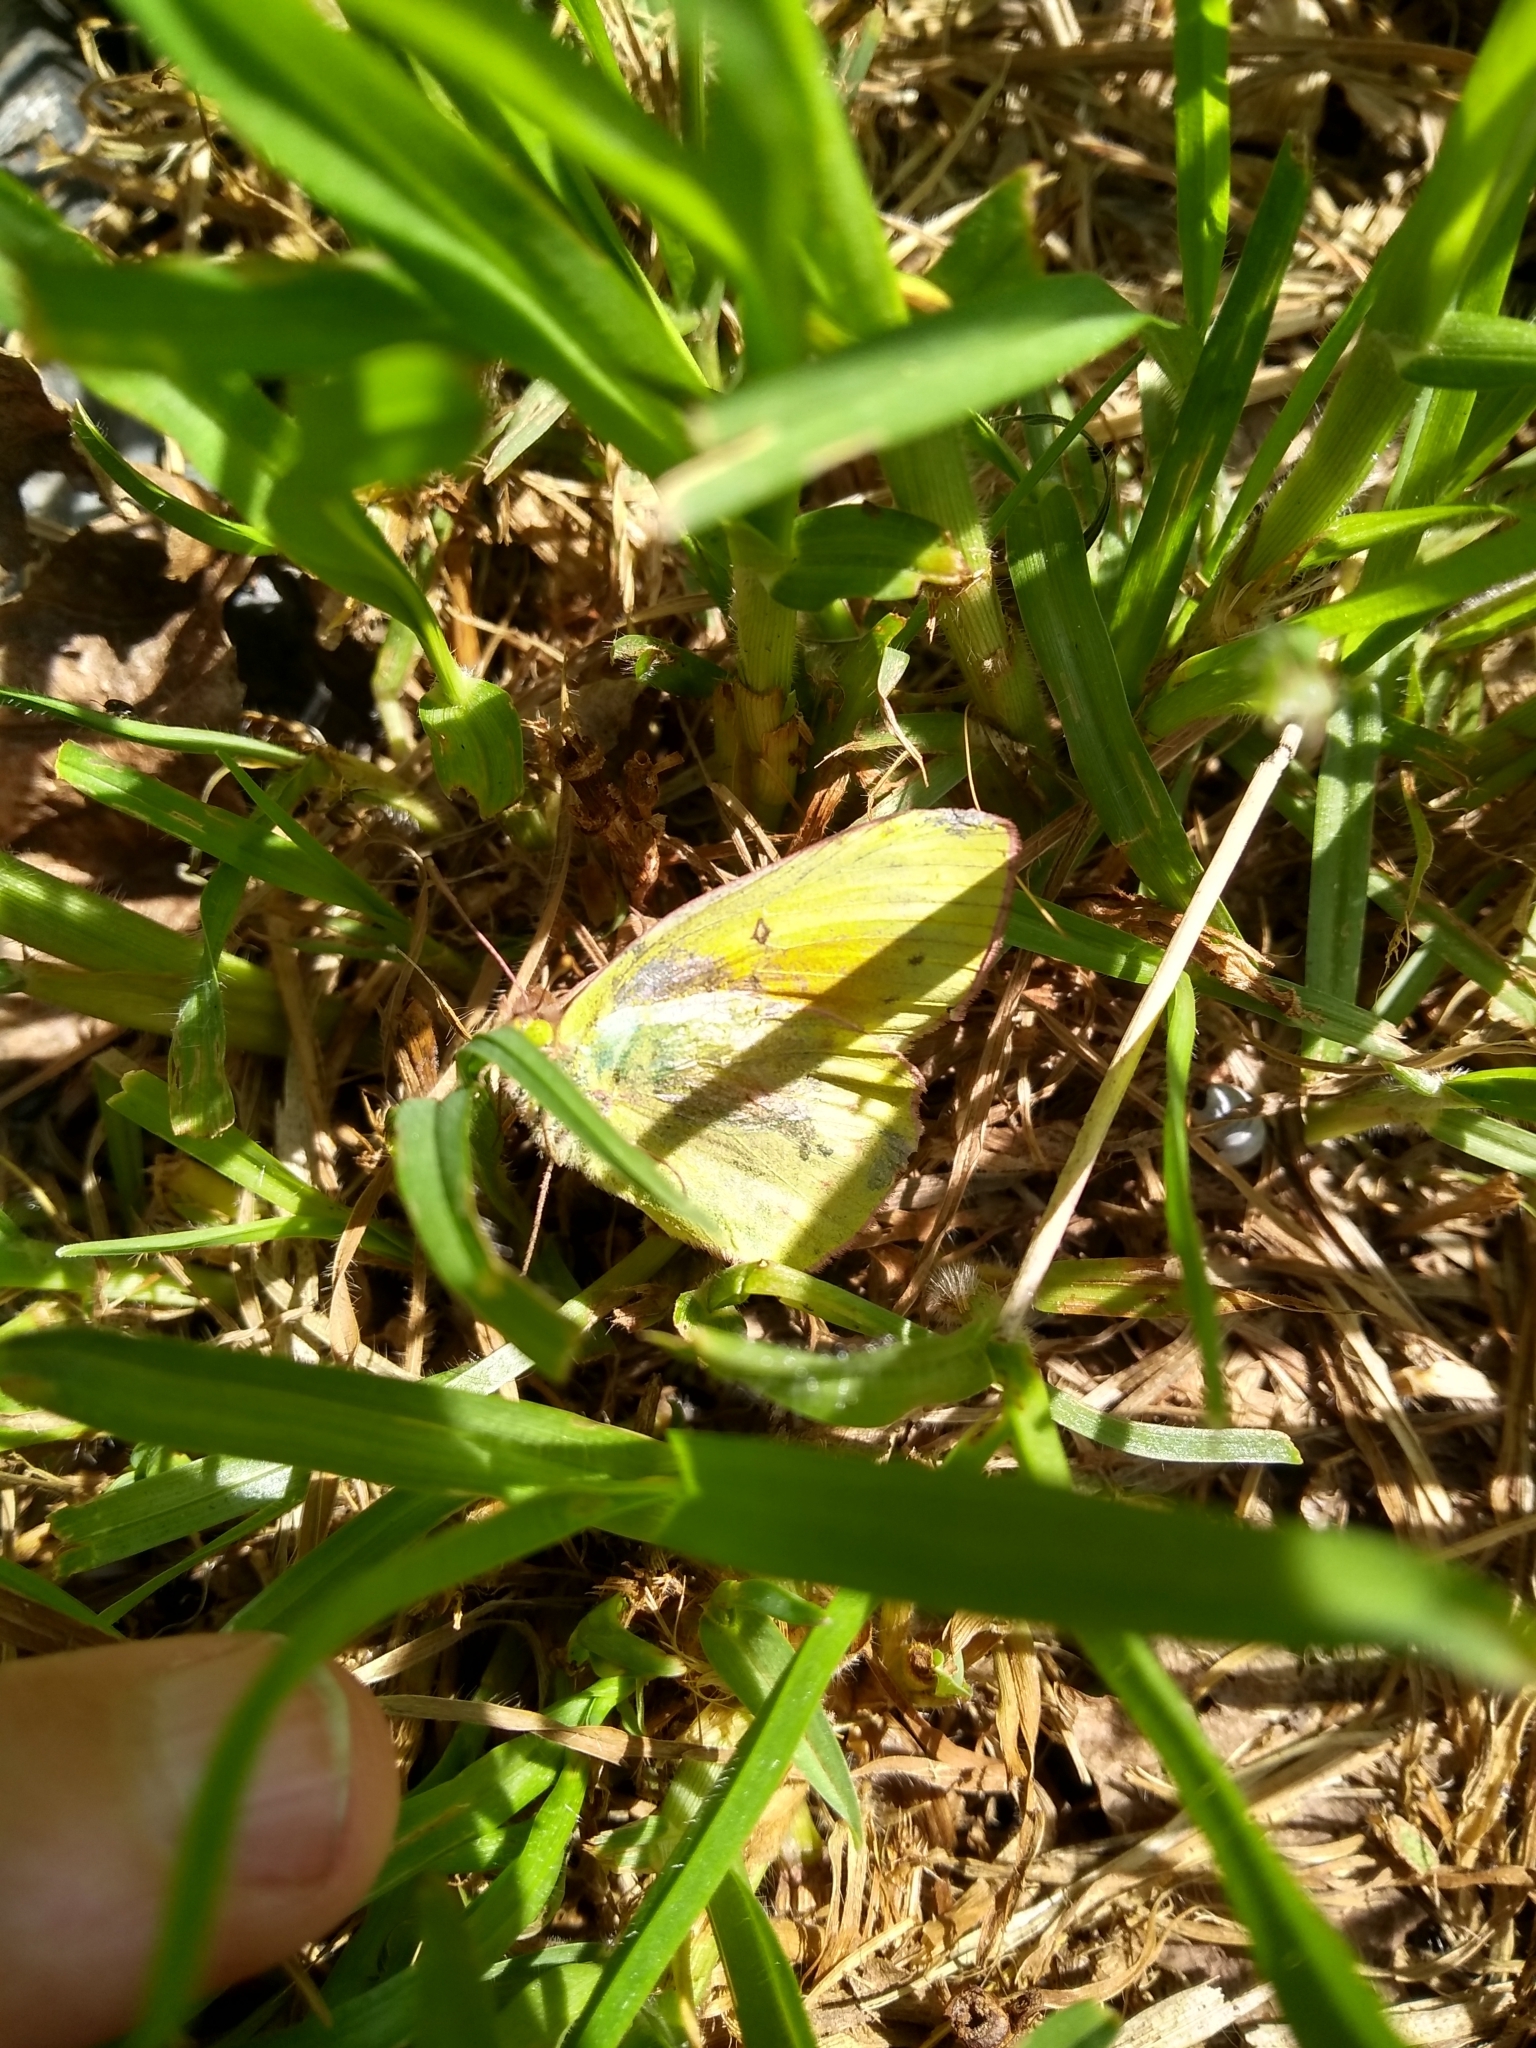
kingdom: Animalia
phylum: Arthropoda
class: Insecta
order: Lepidoptera
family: Pieridae
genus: Colias
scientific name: Colias lesbia
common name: Lesbia clouded yellow
